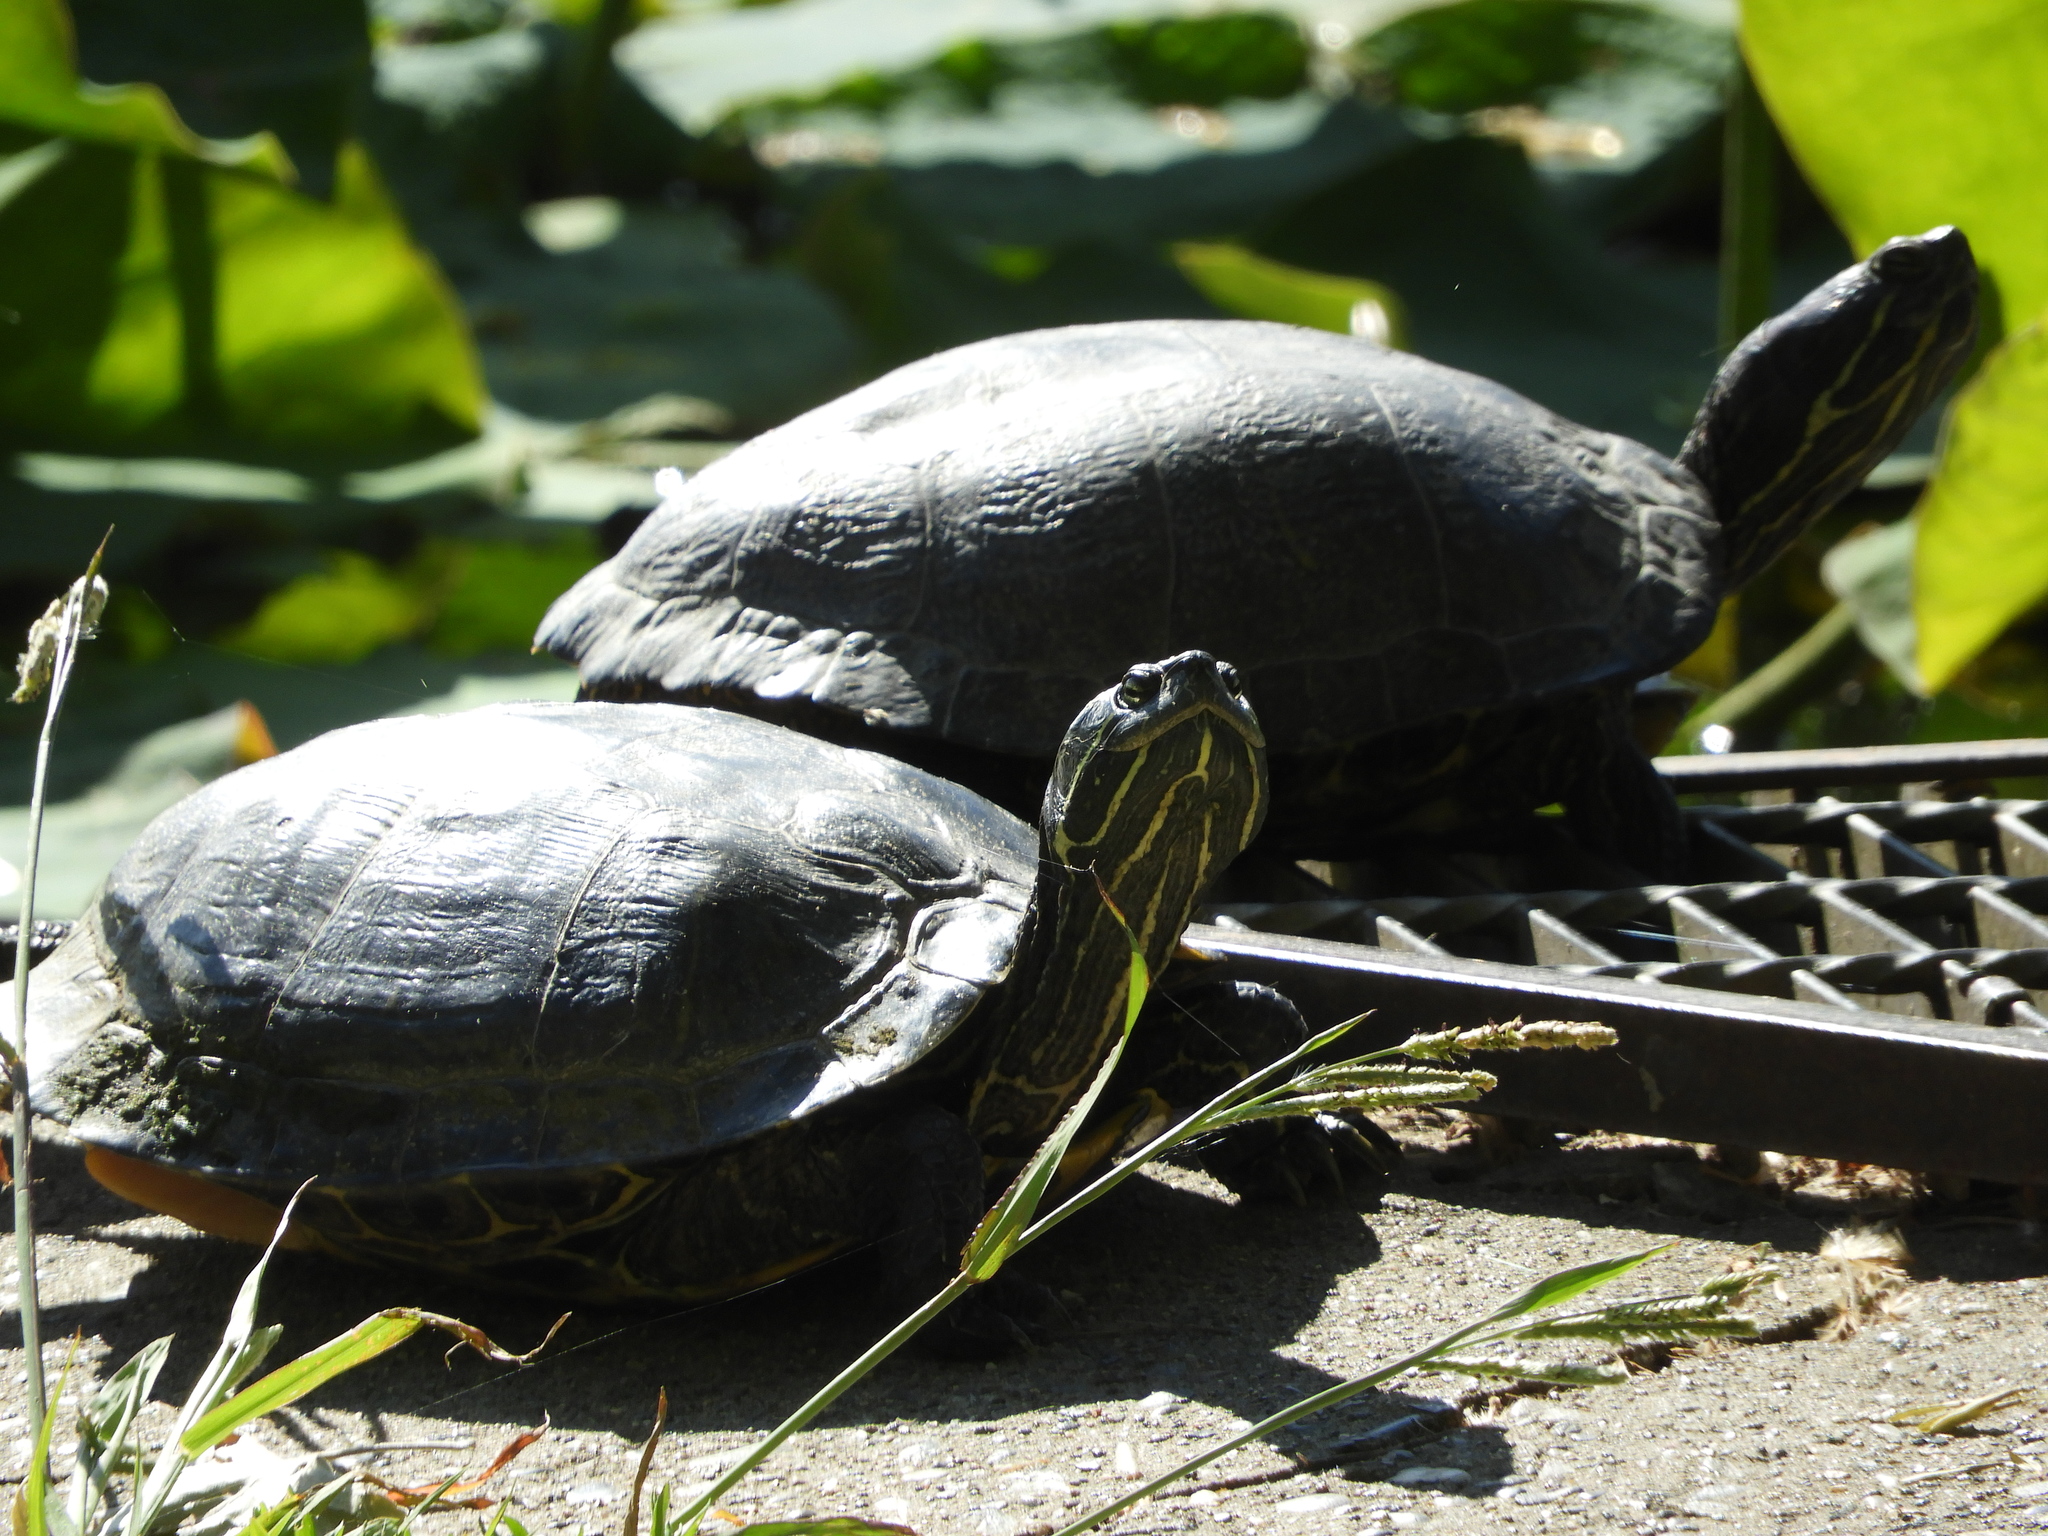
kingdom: Animalia
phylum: Chordata
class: Testudines
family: Emydidae
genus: Trachemys
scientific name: Trachemys scripta
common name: Slider
